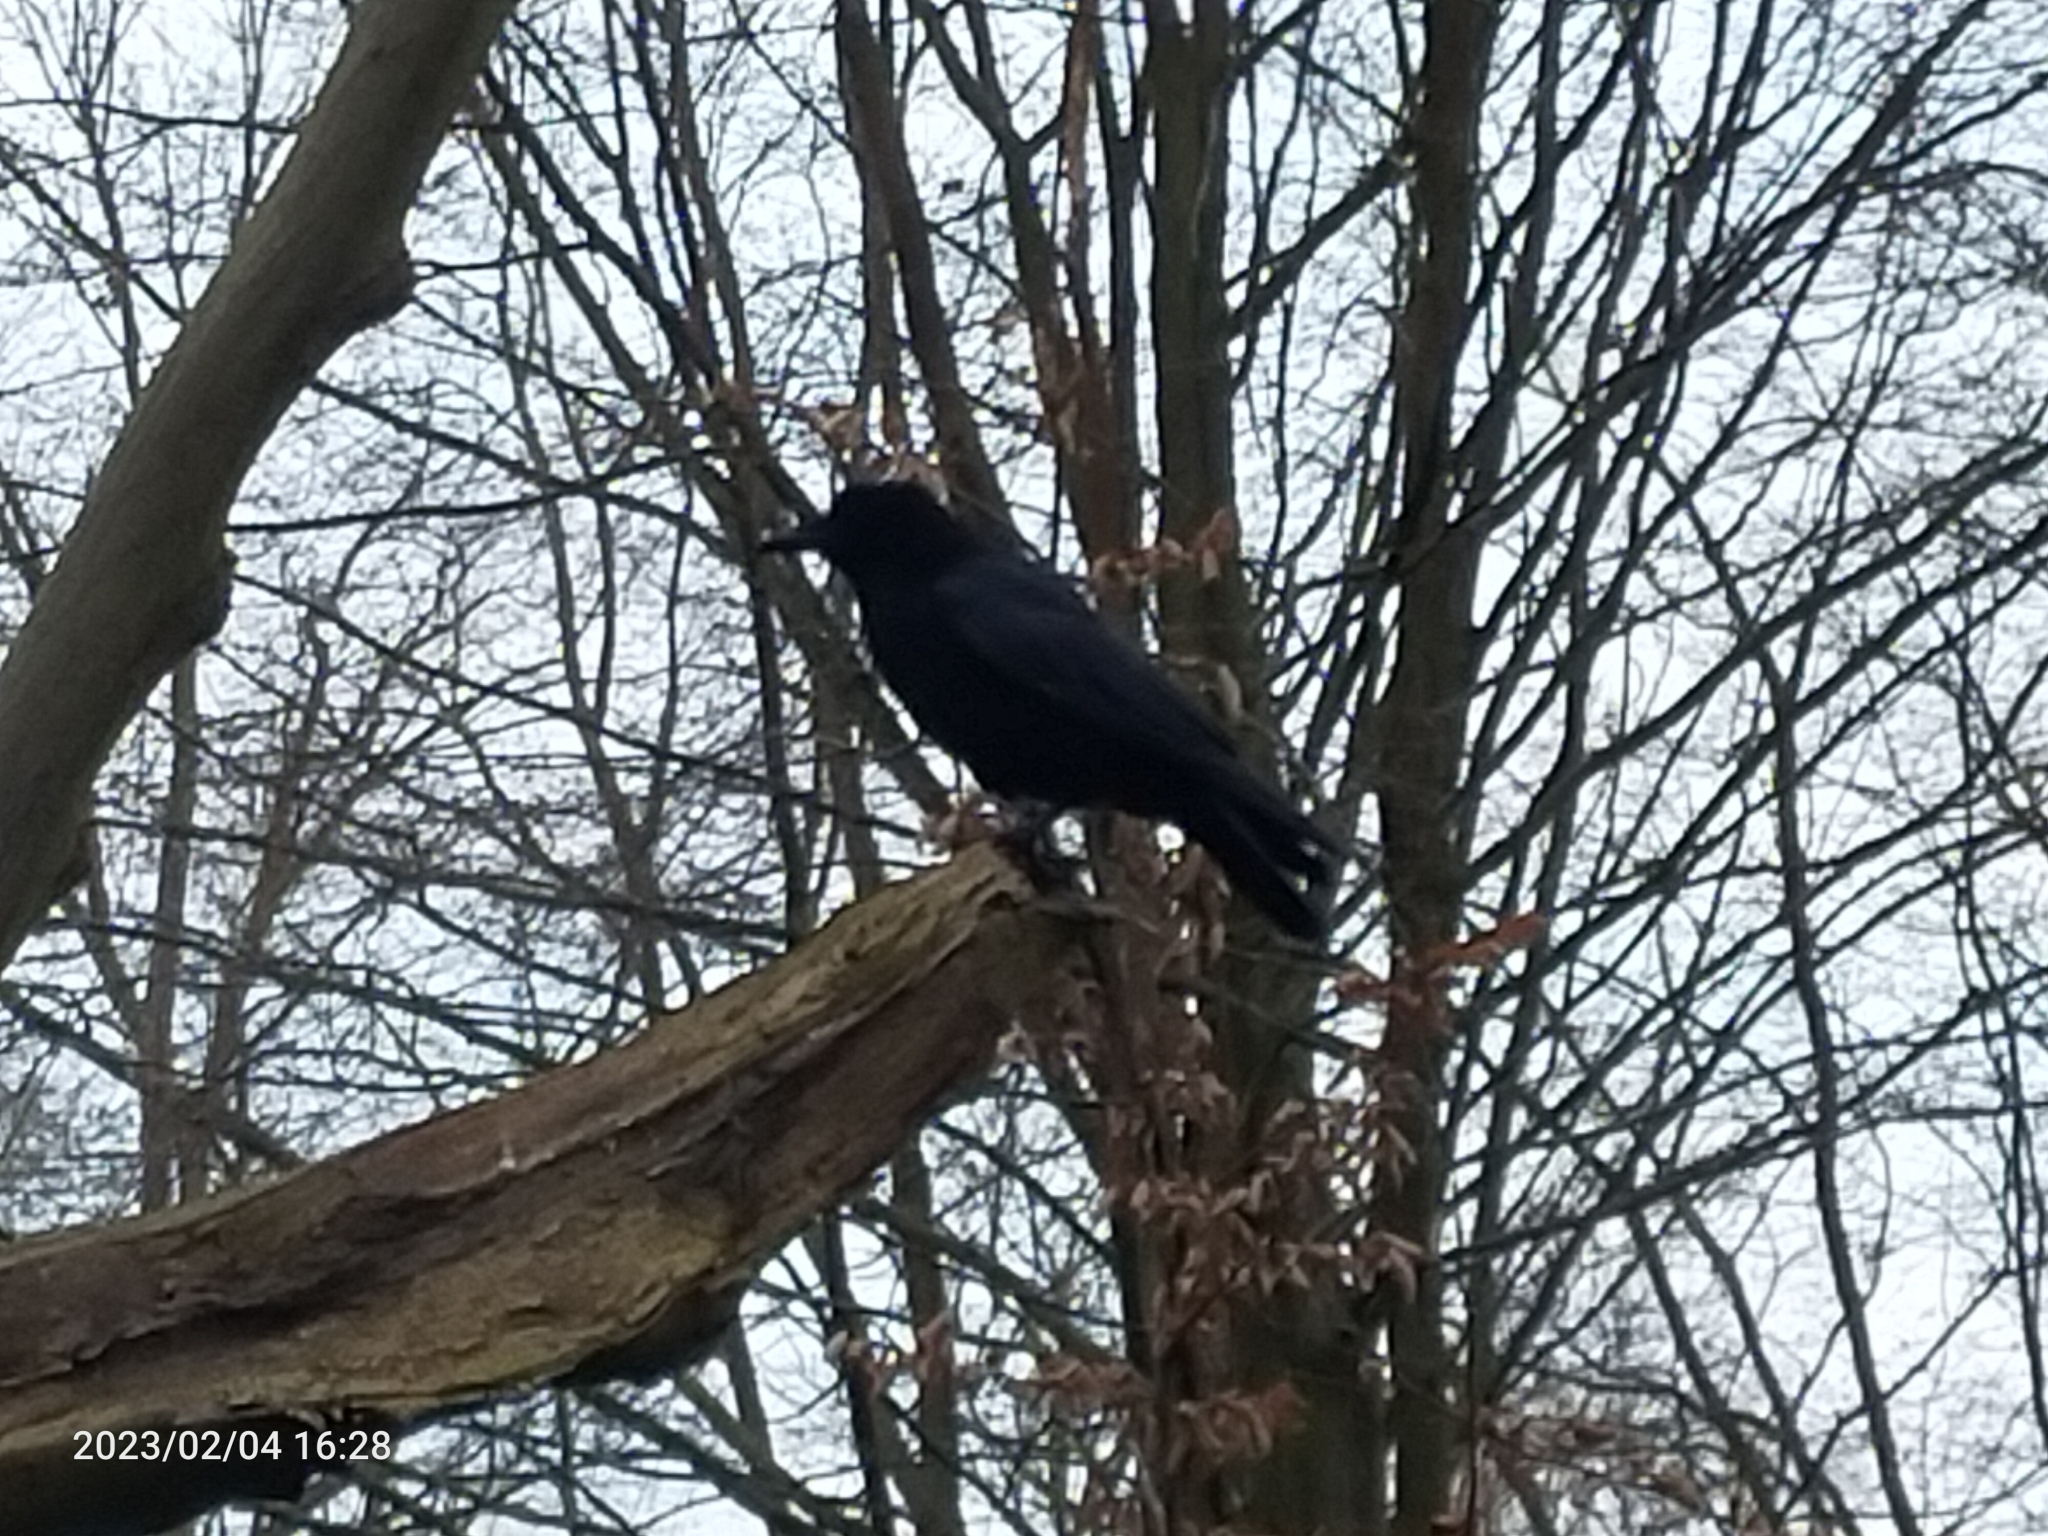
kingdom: Animalia
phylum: Chordata
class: Aves
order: Passeriformes
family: Corvidae
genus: Corvus
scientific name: Corvus corone
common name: Carrion crow
